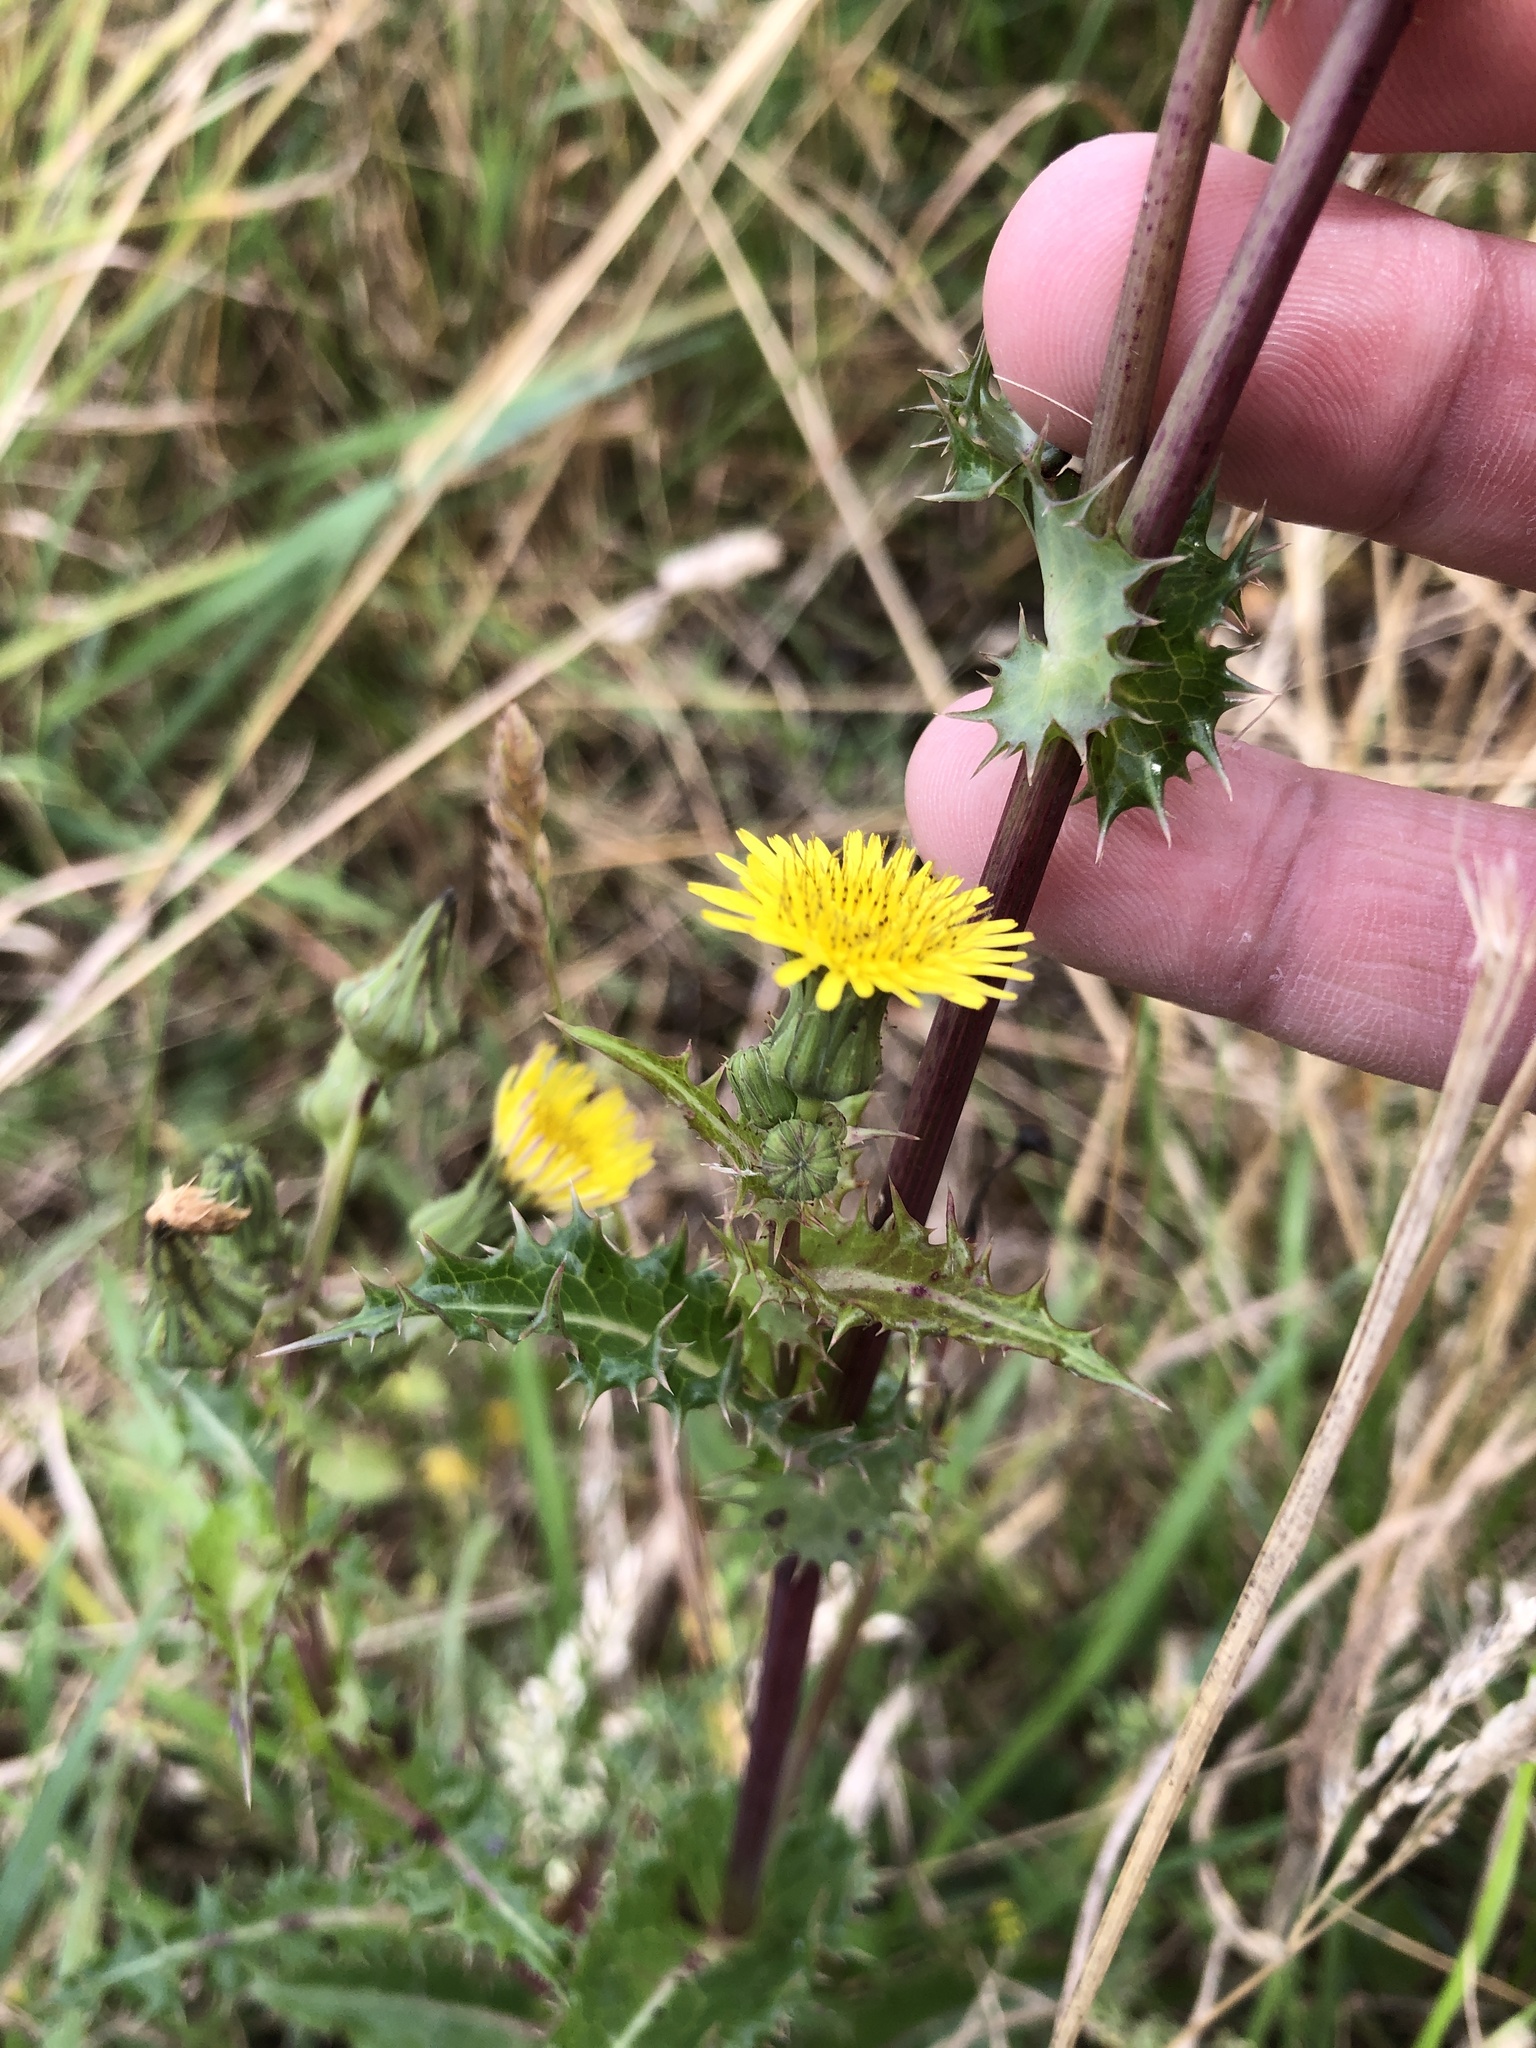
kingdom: Plantae
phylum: Tracheophyta
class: Magnoliopsida
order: Asterales
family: Asteraceae
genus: Sonchus
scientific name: Sonchus asper
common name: Prickly sow-thistle
